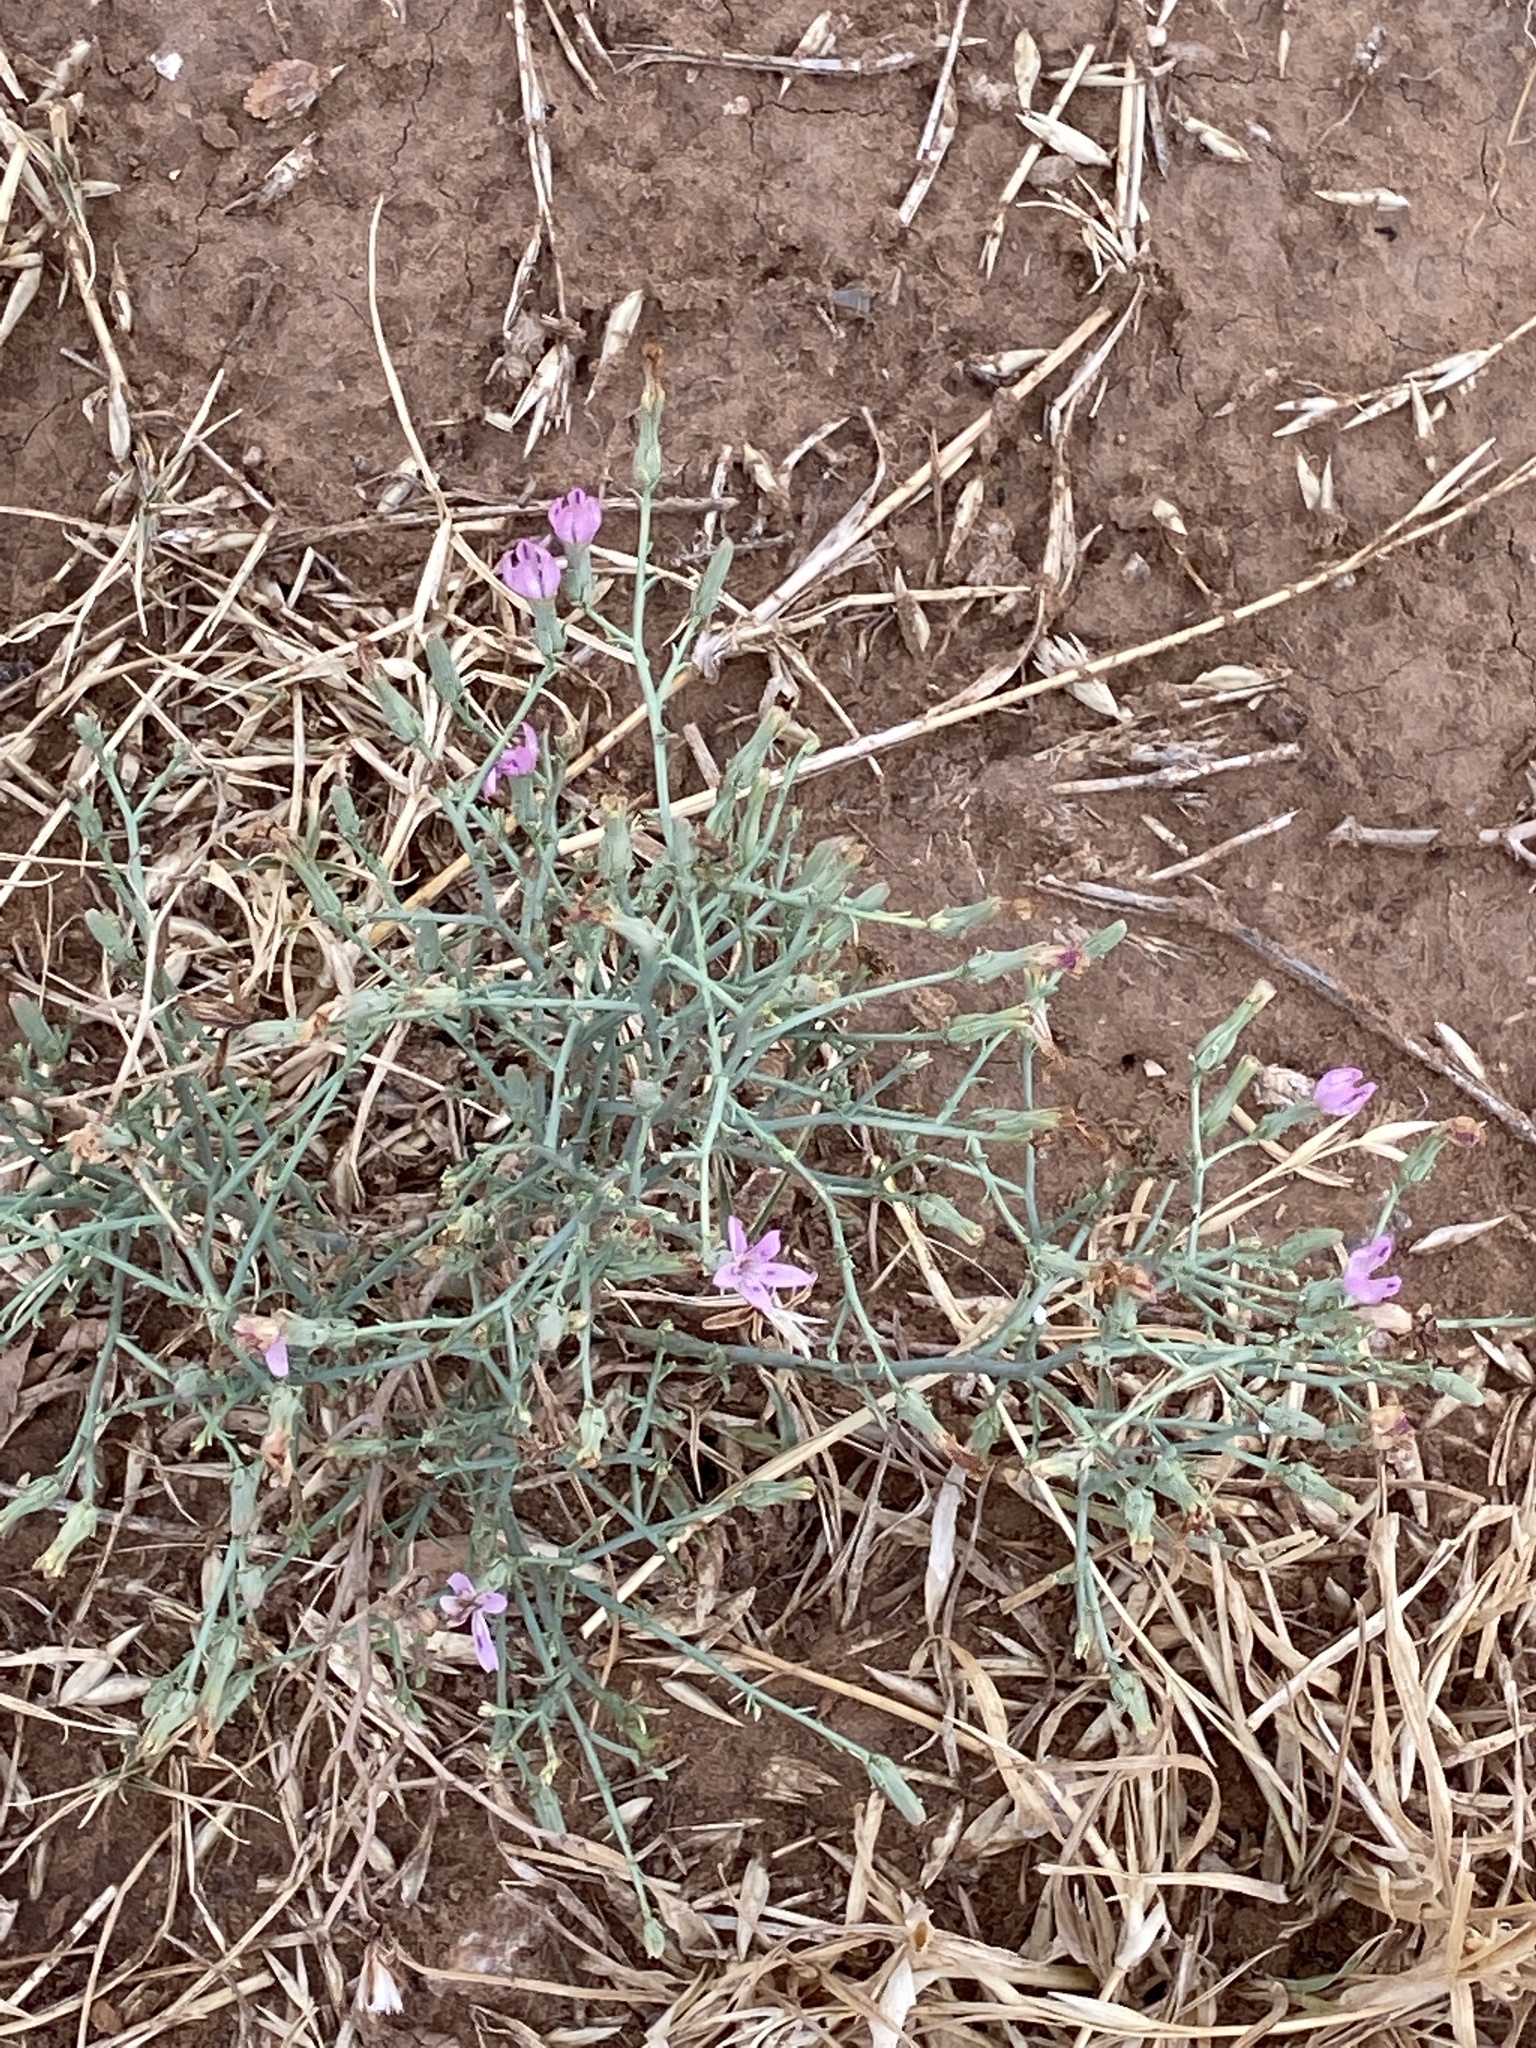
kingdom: Plantae
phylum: Tracheophyta
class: Magnoliopsida
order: Asterales
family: Asteraceae
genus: Stephanomeria
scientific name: Stephanomeria pauciflora
